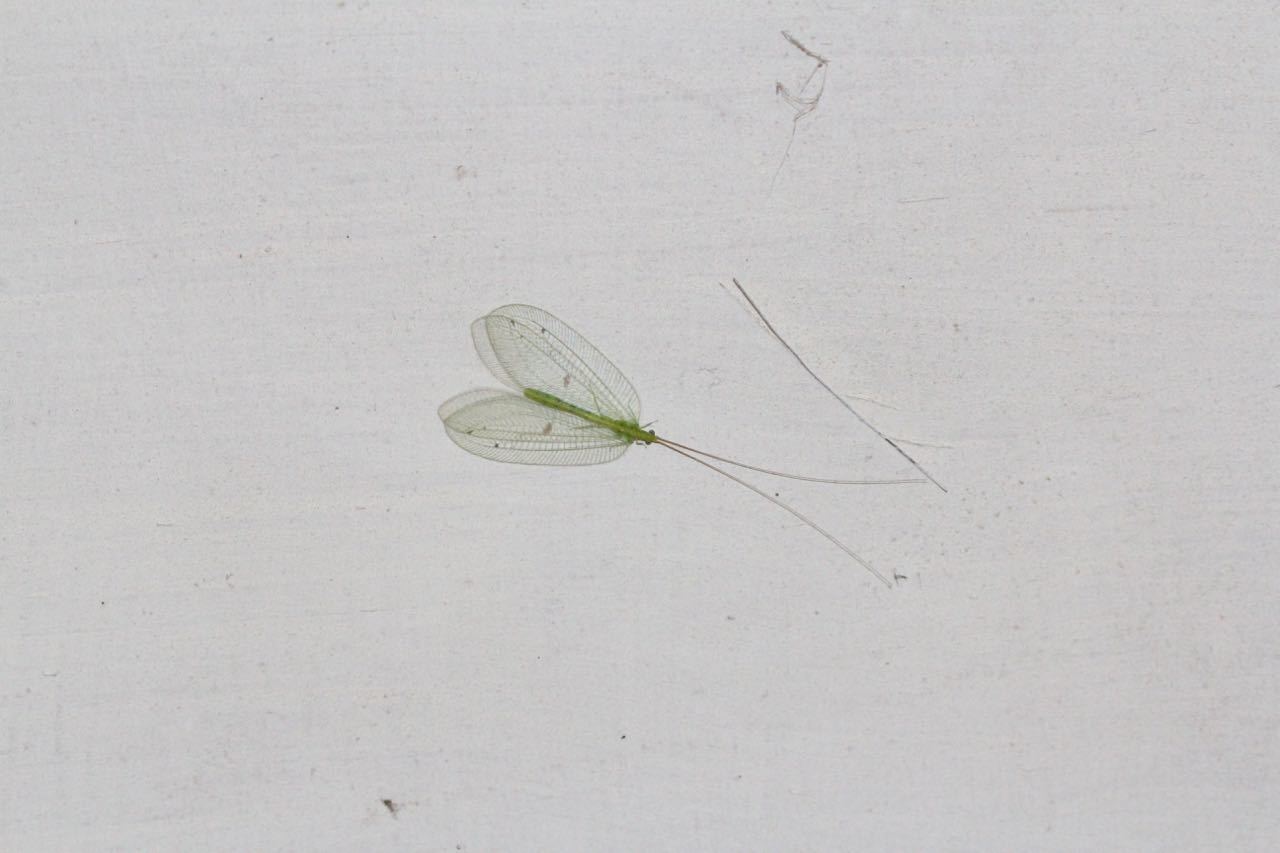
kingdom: Animalia
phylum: Arthropoda
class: Insecta
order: Neuroptera
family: Chrysopidae
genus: Apochrysa
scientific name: Apochrysa lutea
